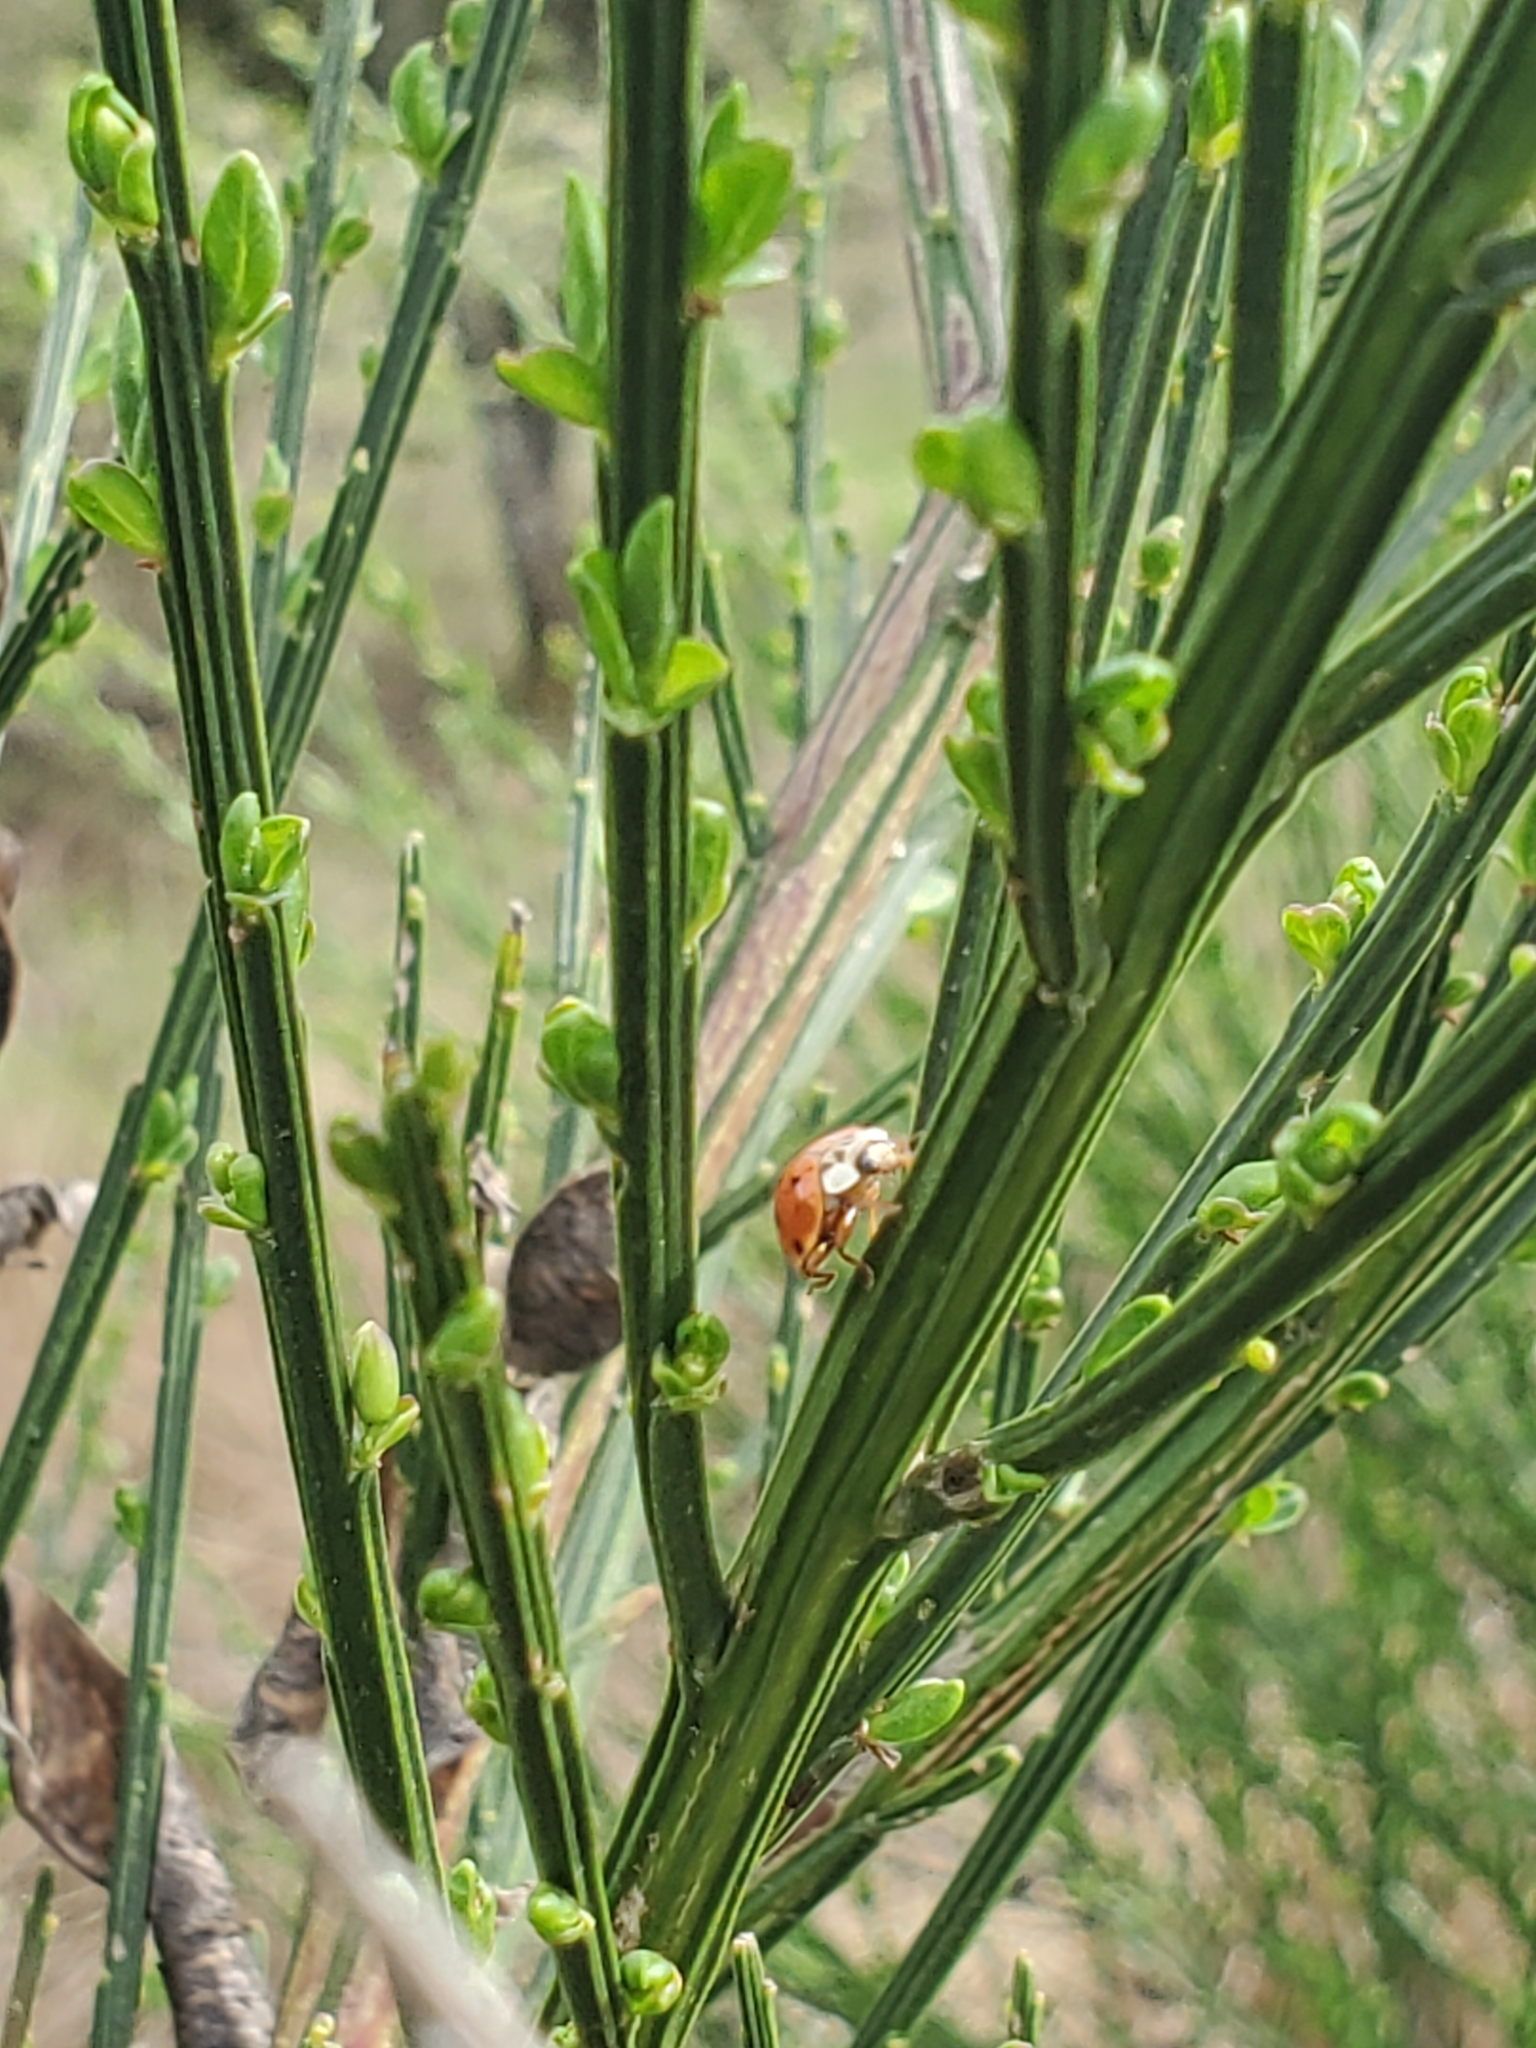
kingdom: Animalia
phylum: Arthropoda
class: Insecta
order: Coleoptera
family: Coccinellidae
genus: Harmonia
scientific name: Harmonia axyridis
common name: Harlequin ladybird
